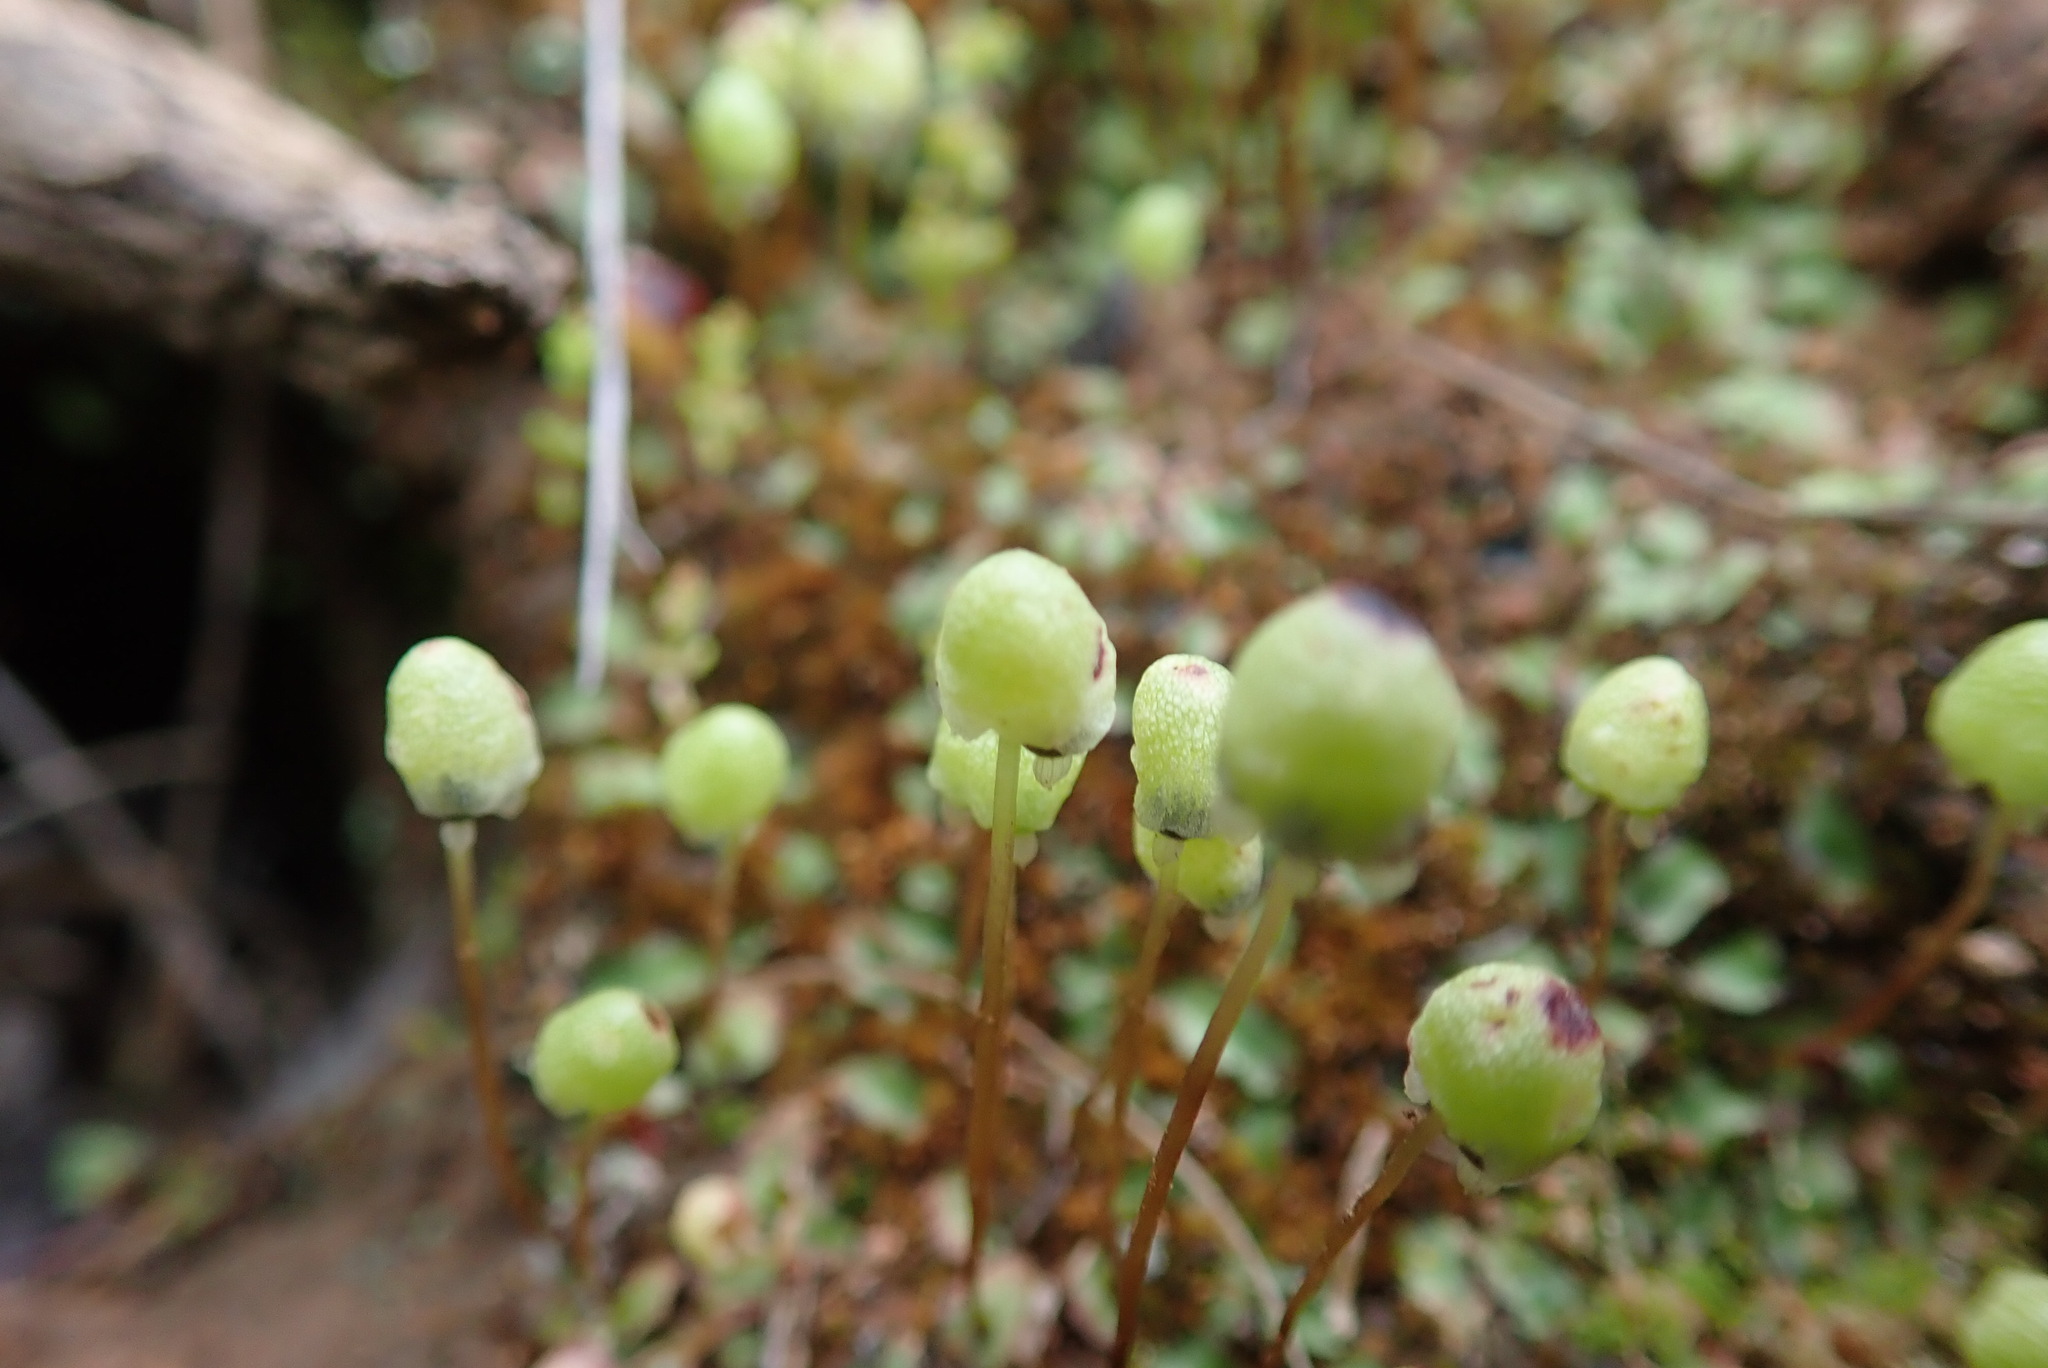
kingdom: Plantae
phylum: Marchantiophyta
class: Marchantiopsida
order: Marchantiales
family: Aytoniaceae
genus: Asterella
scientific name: Asterella palmeri
